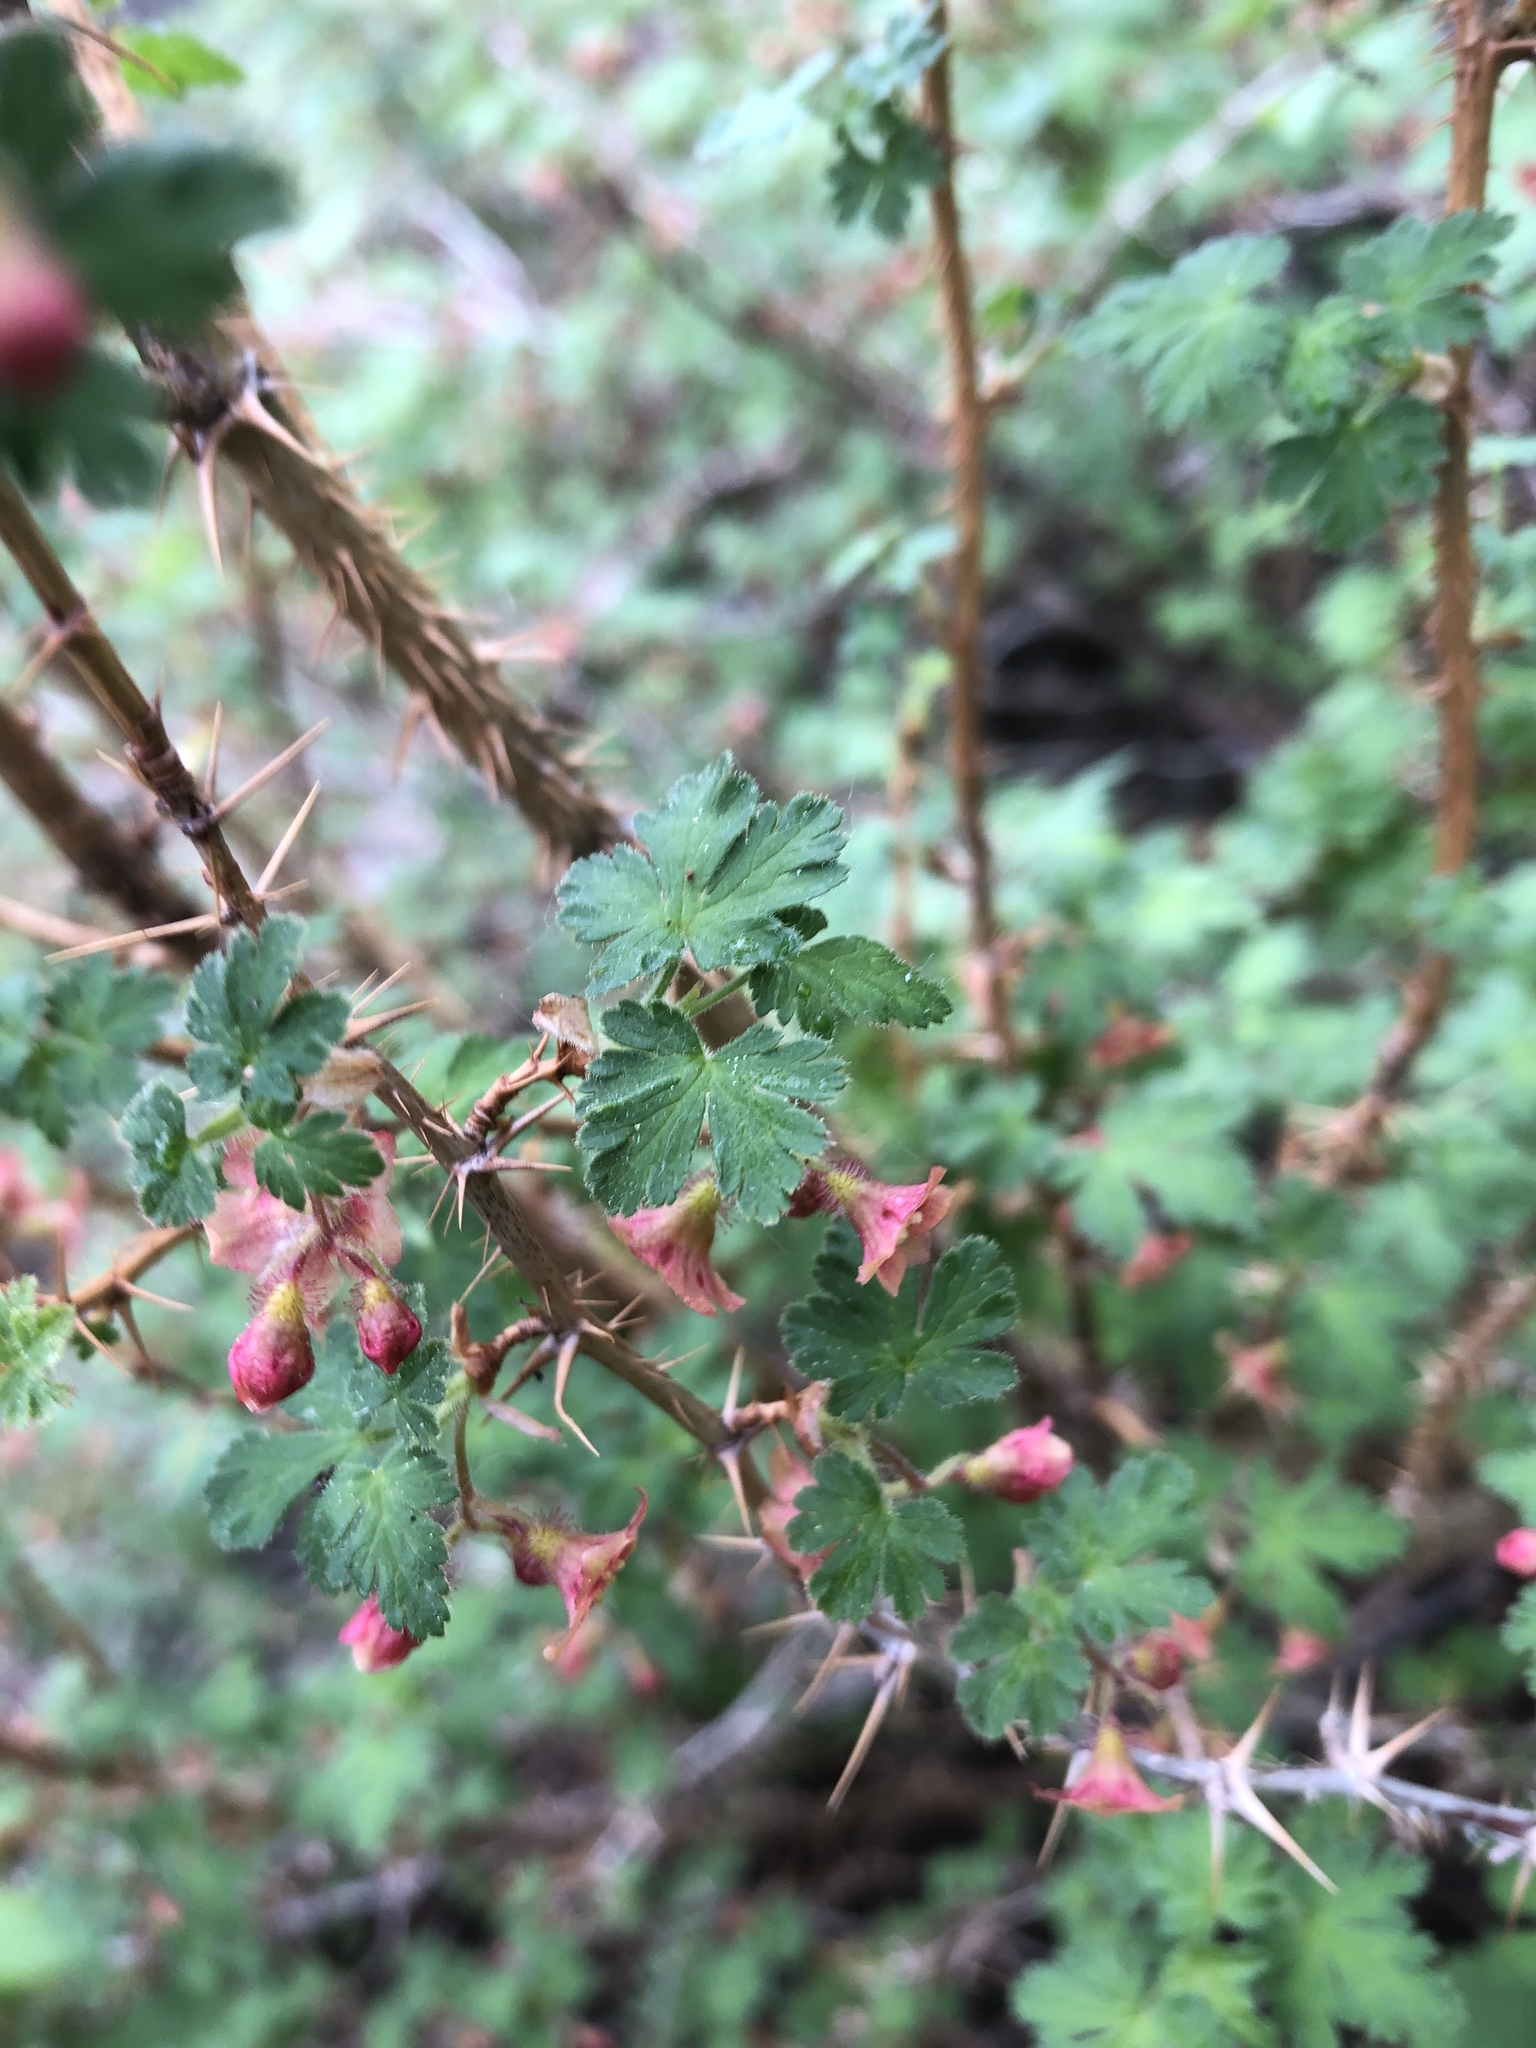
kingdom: Plantae
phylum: Tracheophyta
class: Magnoliopsida
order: Saxifragales
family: Grossulariaceae
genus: Ribes
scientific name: Ribes montigenum
